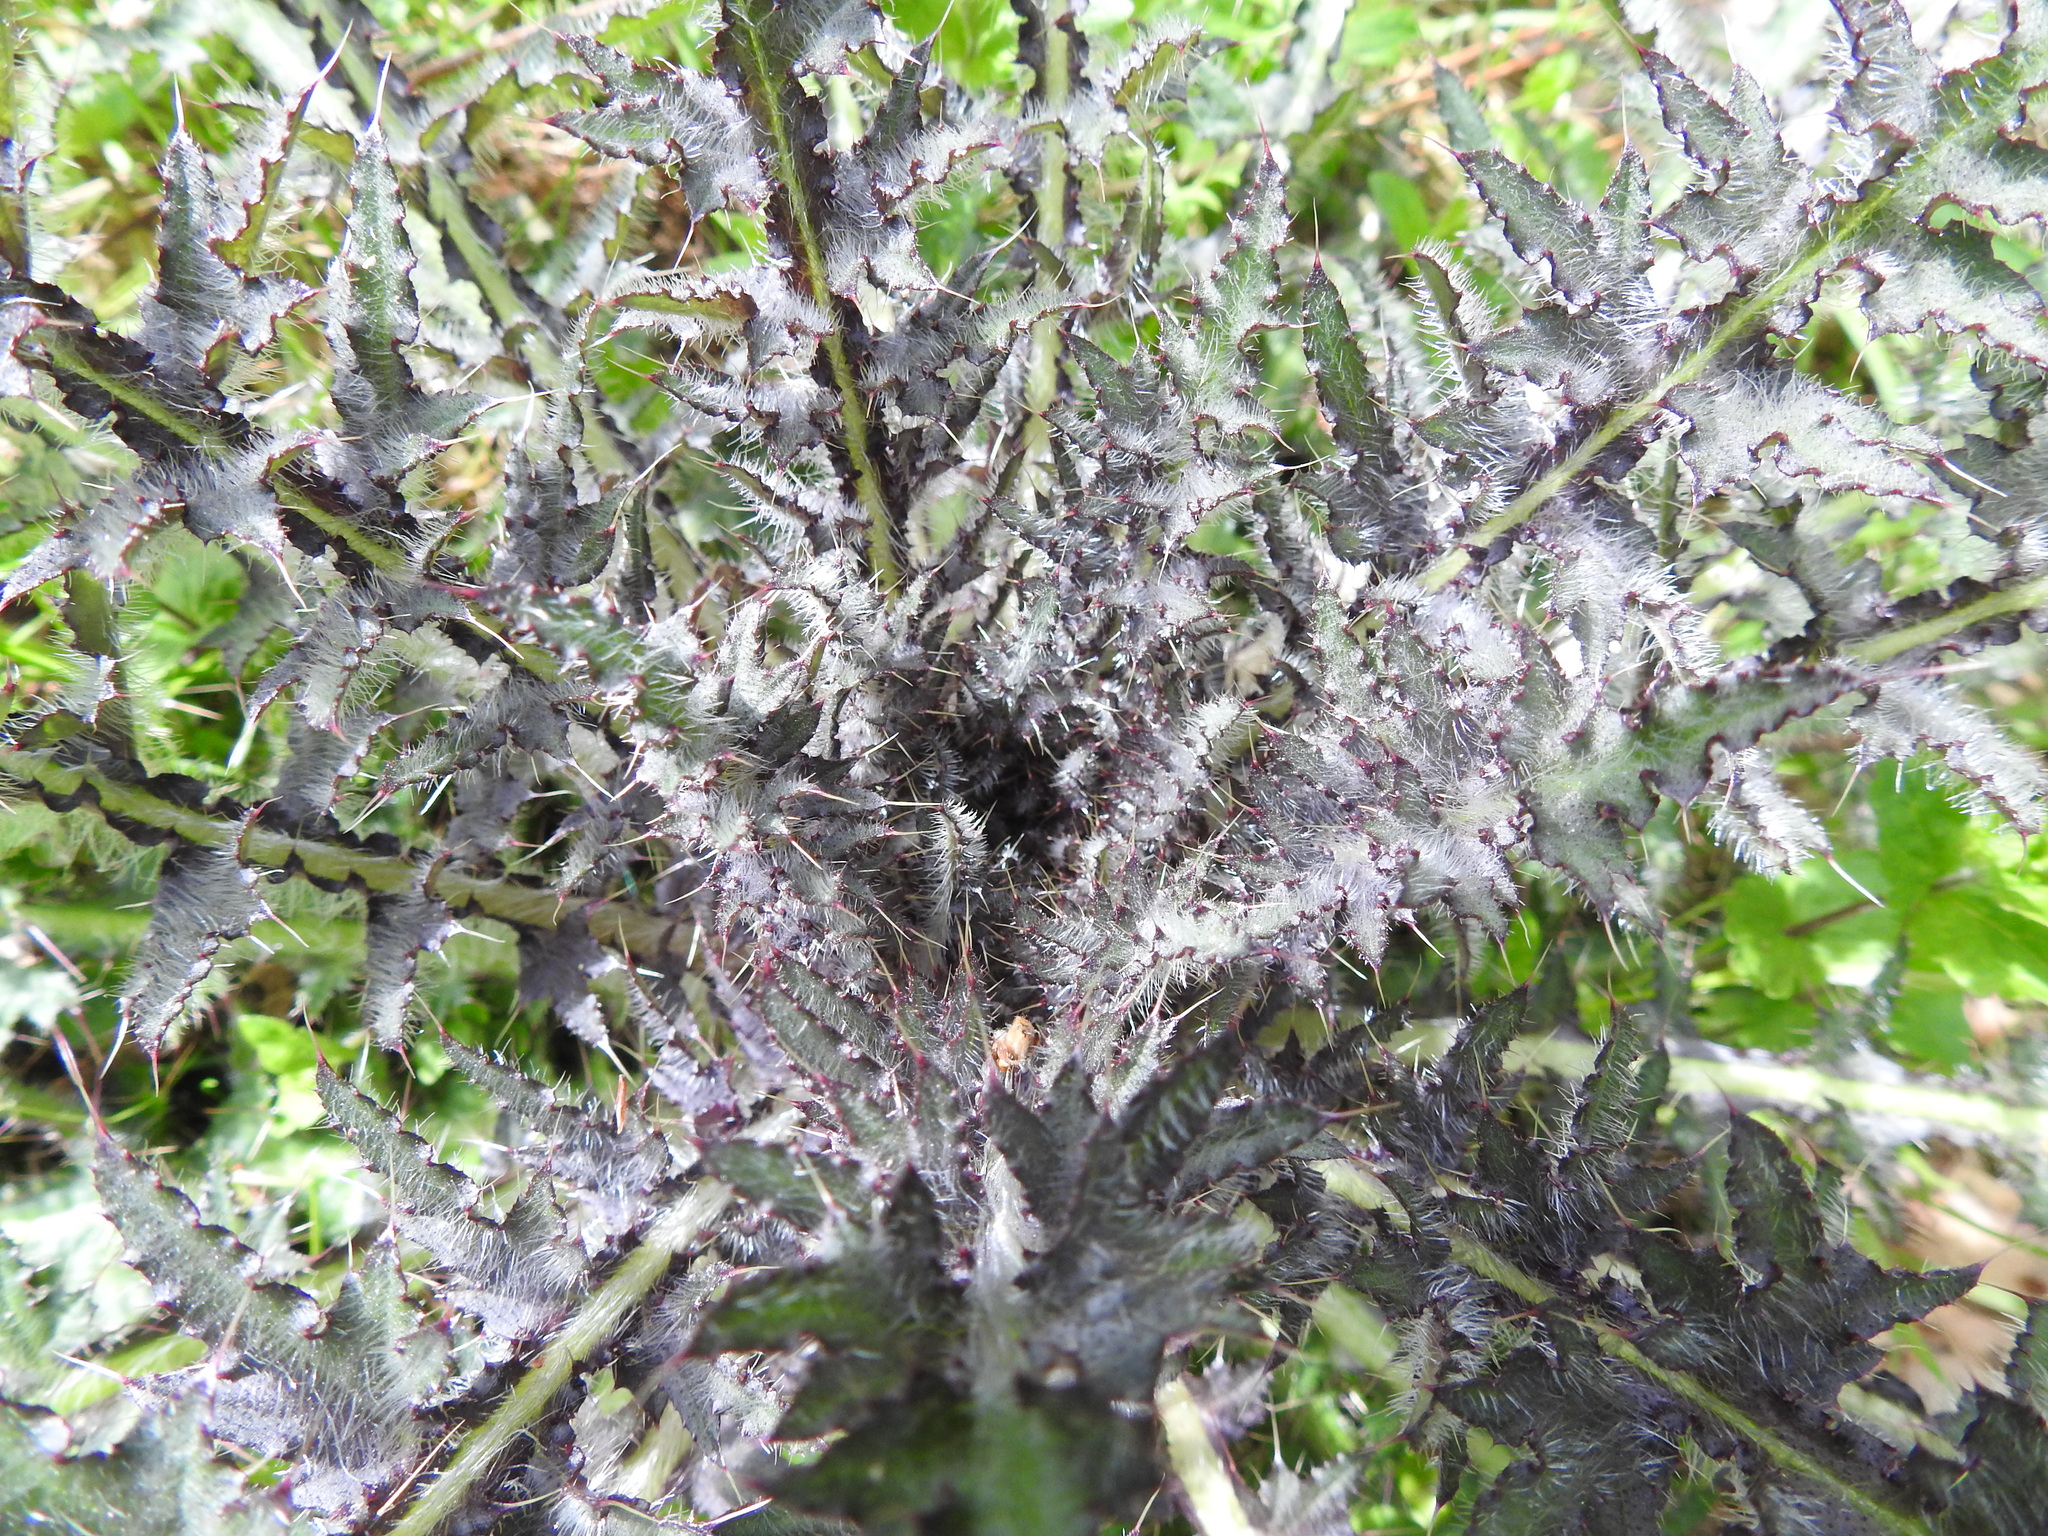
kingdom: Plantae
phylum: Tracheophyta
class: Magnoliopsida
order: Asterales
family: Asteraceae
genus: Cirsium
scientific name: Cirsium palustre
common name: Marsh thistle
